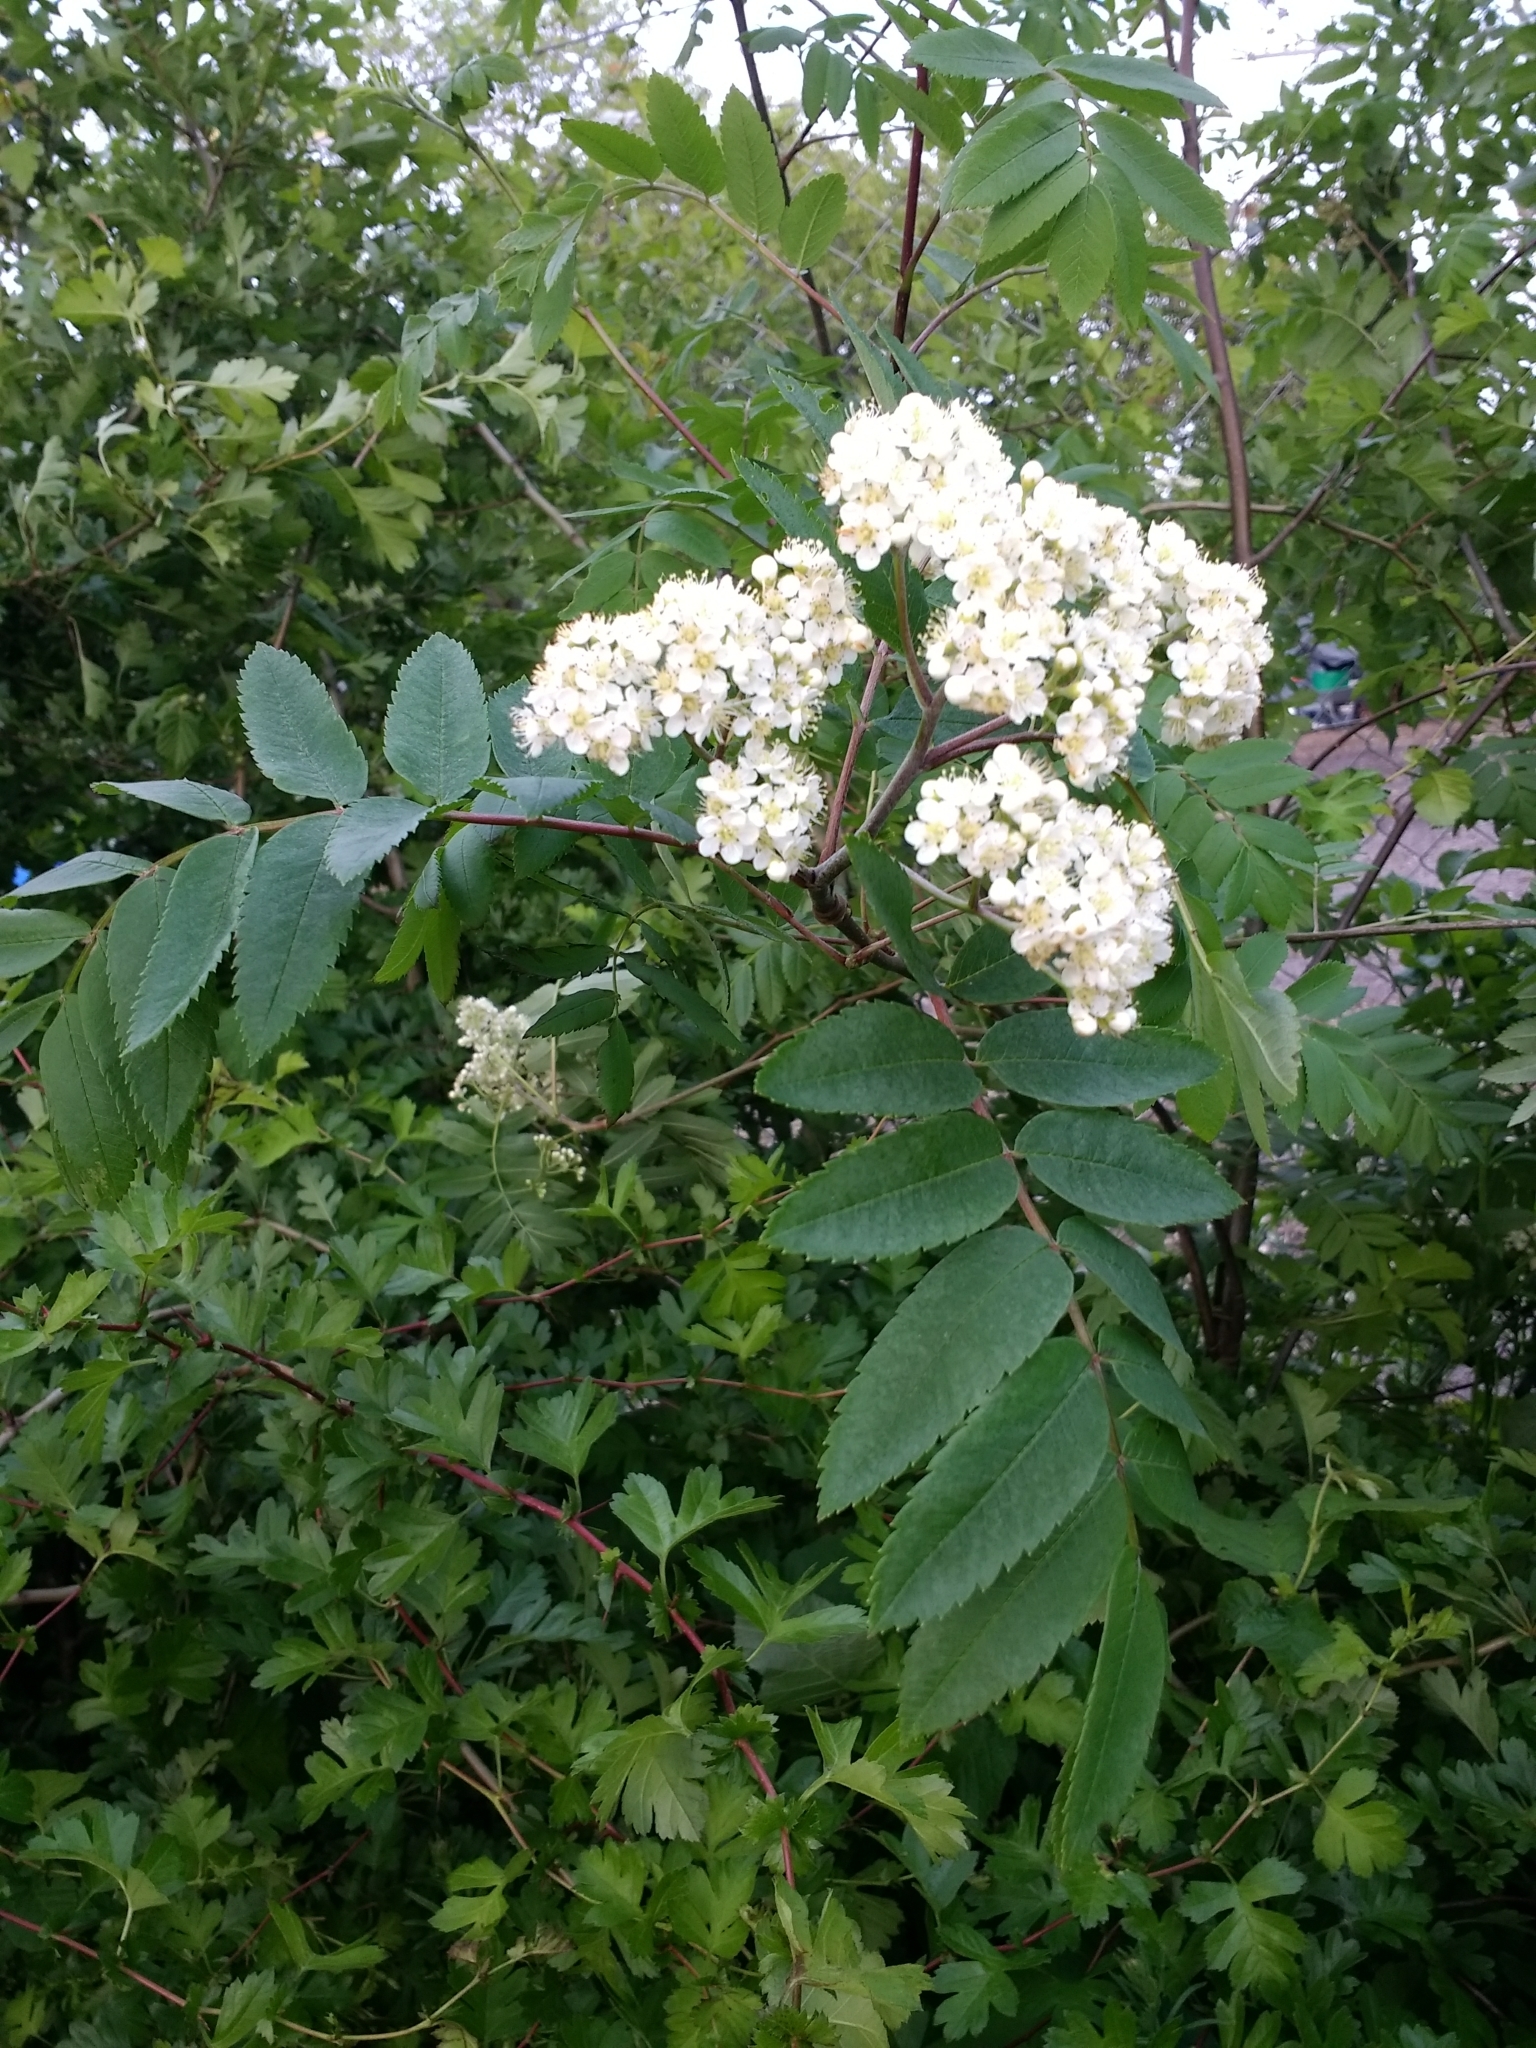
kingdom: Plantae
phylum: Tracheophyta
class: Magnoliopsida
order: Rosales
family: Rosaceae
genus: Sorbus
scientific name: Sorbus aucuparia
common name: Rowan
